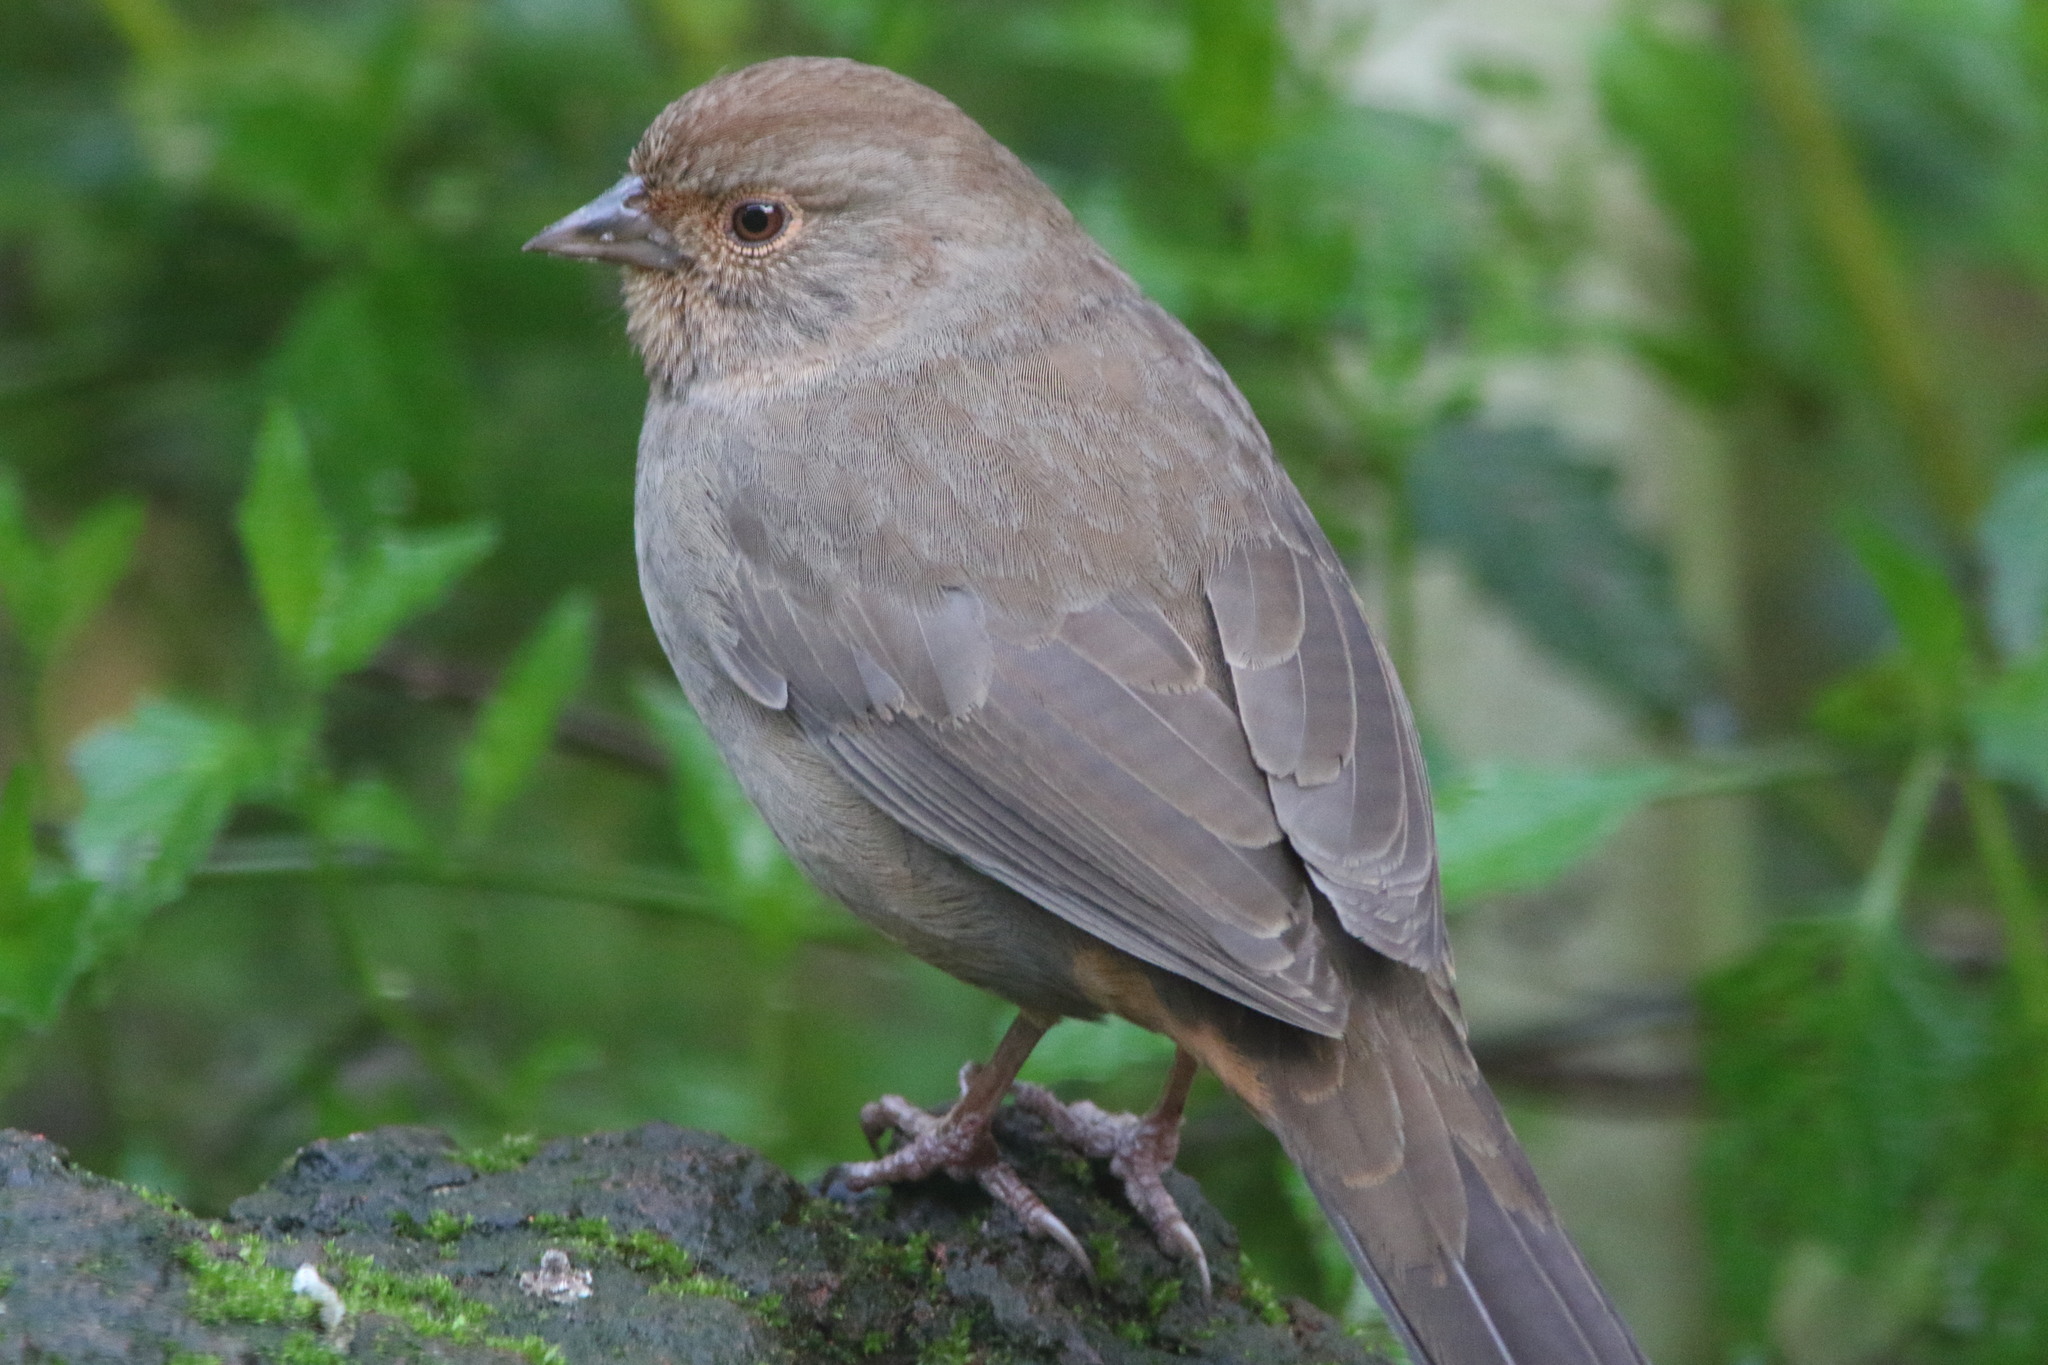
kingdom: Animalia
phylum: Chordata
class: Aves
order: Passeriformes
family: Passerellidae
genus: Melozone
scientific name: Melozone crissalis
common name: California towhee
